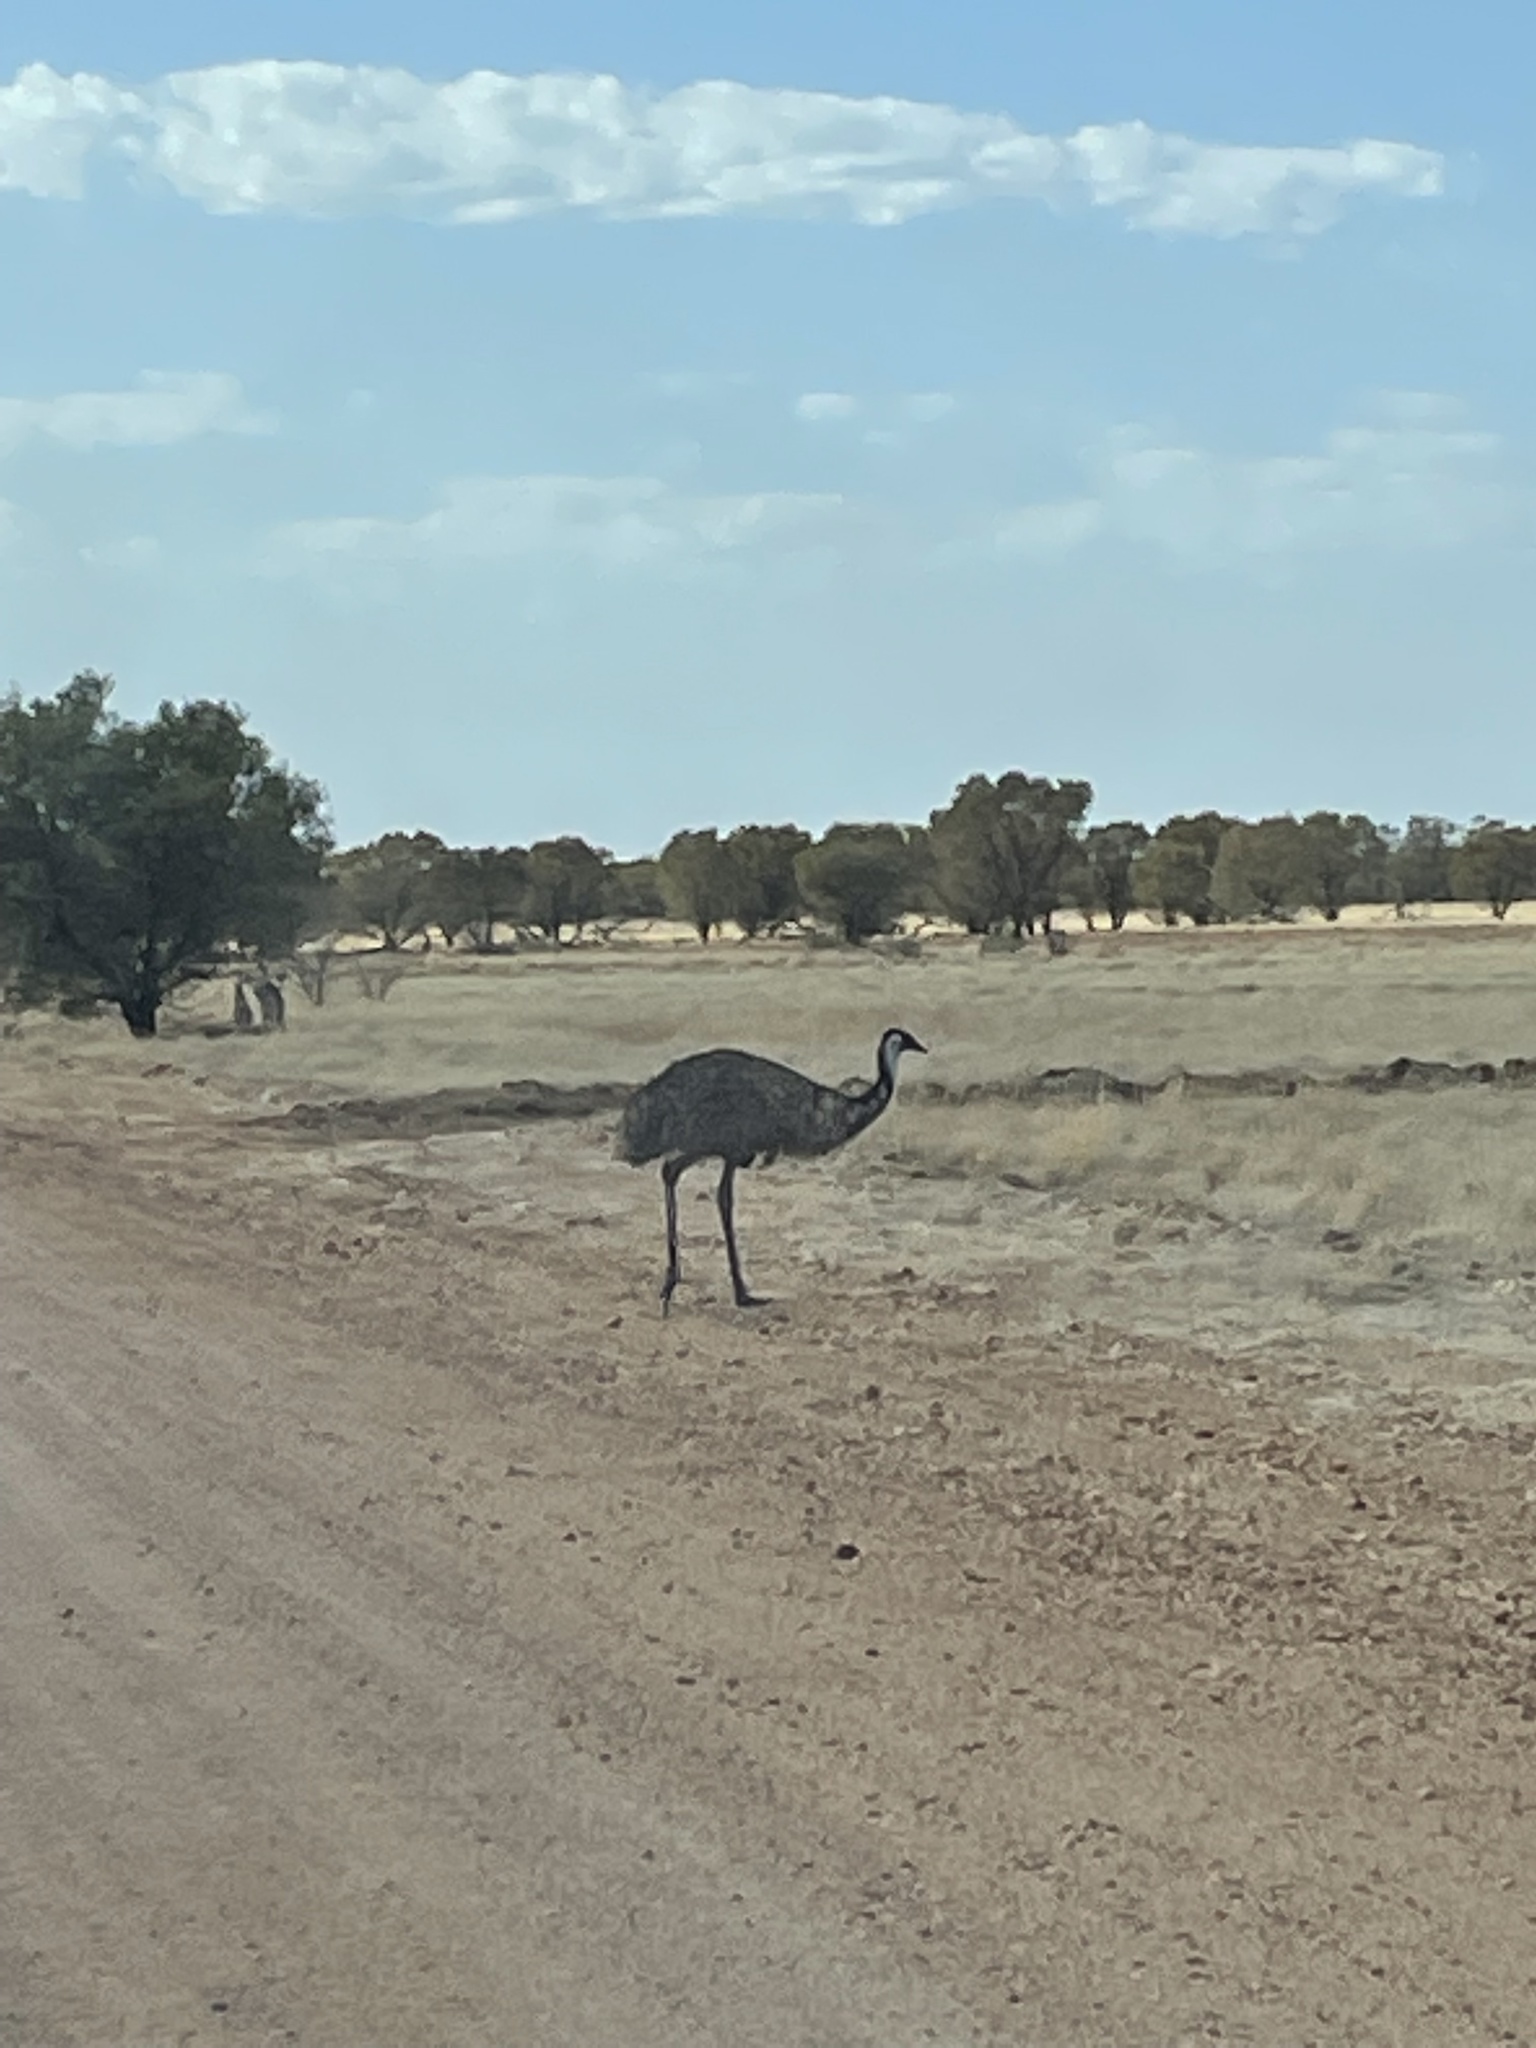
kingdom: Animalia
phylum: Chordata
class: Aves
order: Casuariiformes
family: Dromaiidae
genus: Dromaius
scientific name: Dromaius novaehollandiae
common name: Emu
